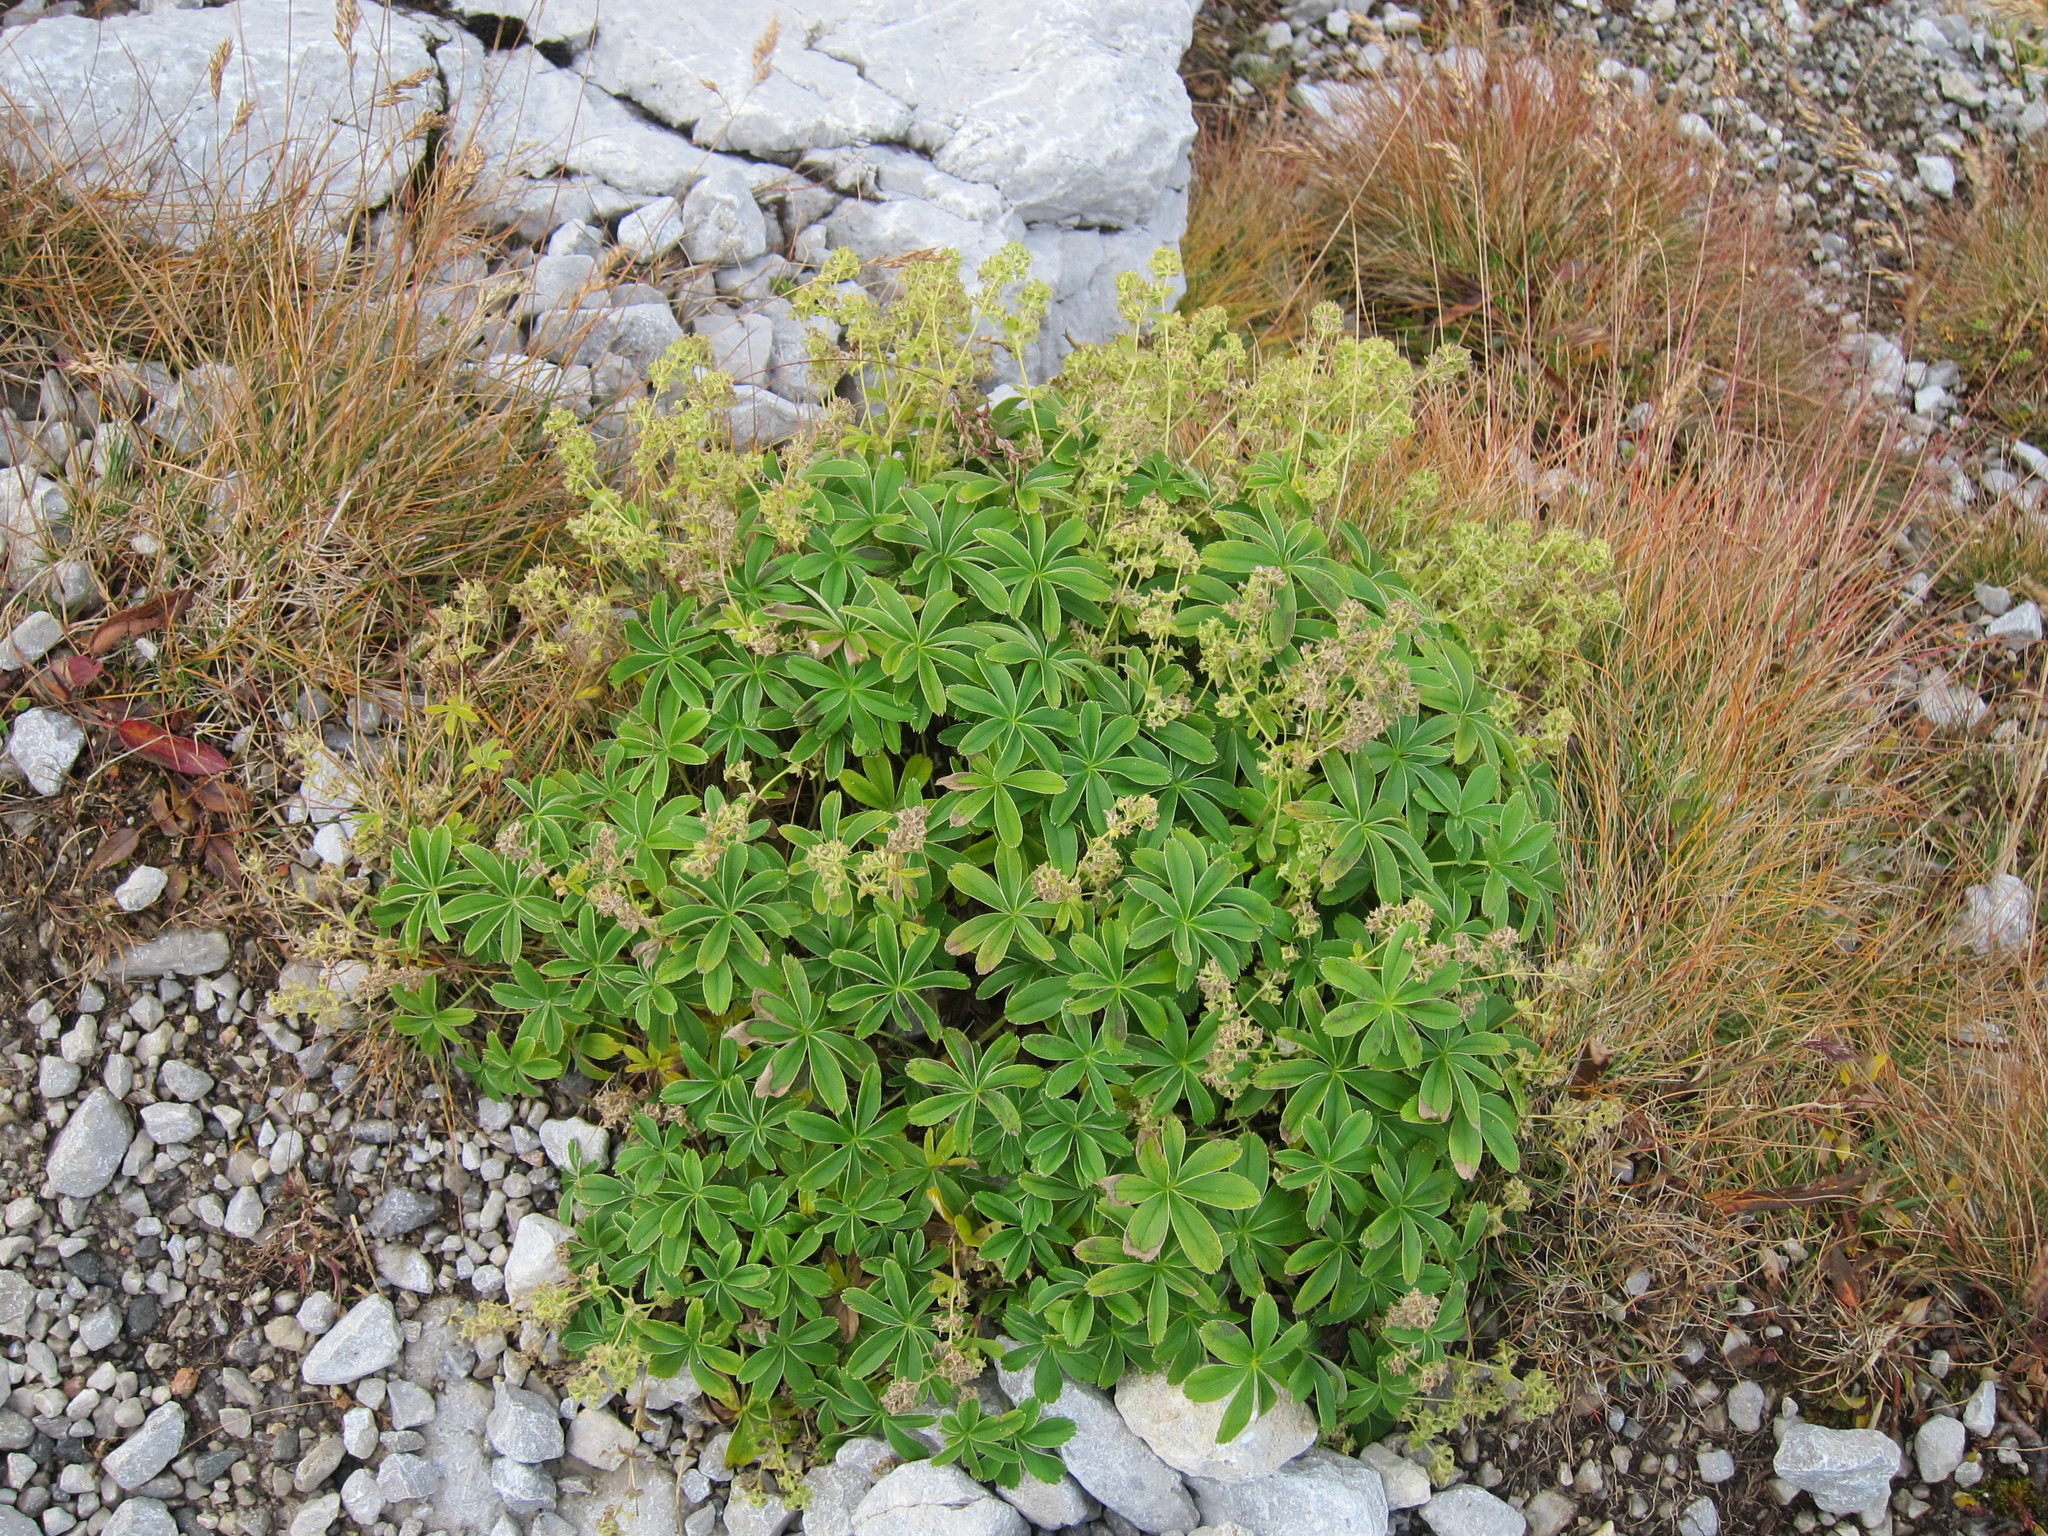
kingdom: Plantae
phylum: Tracheophyta
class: Magnoliopsida
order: Rosales
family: Rosaceae
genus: Alchemilla
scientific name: Alchemilla alpigena
